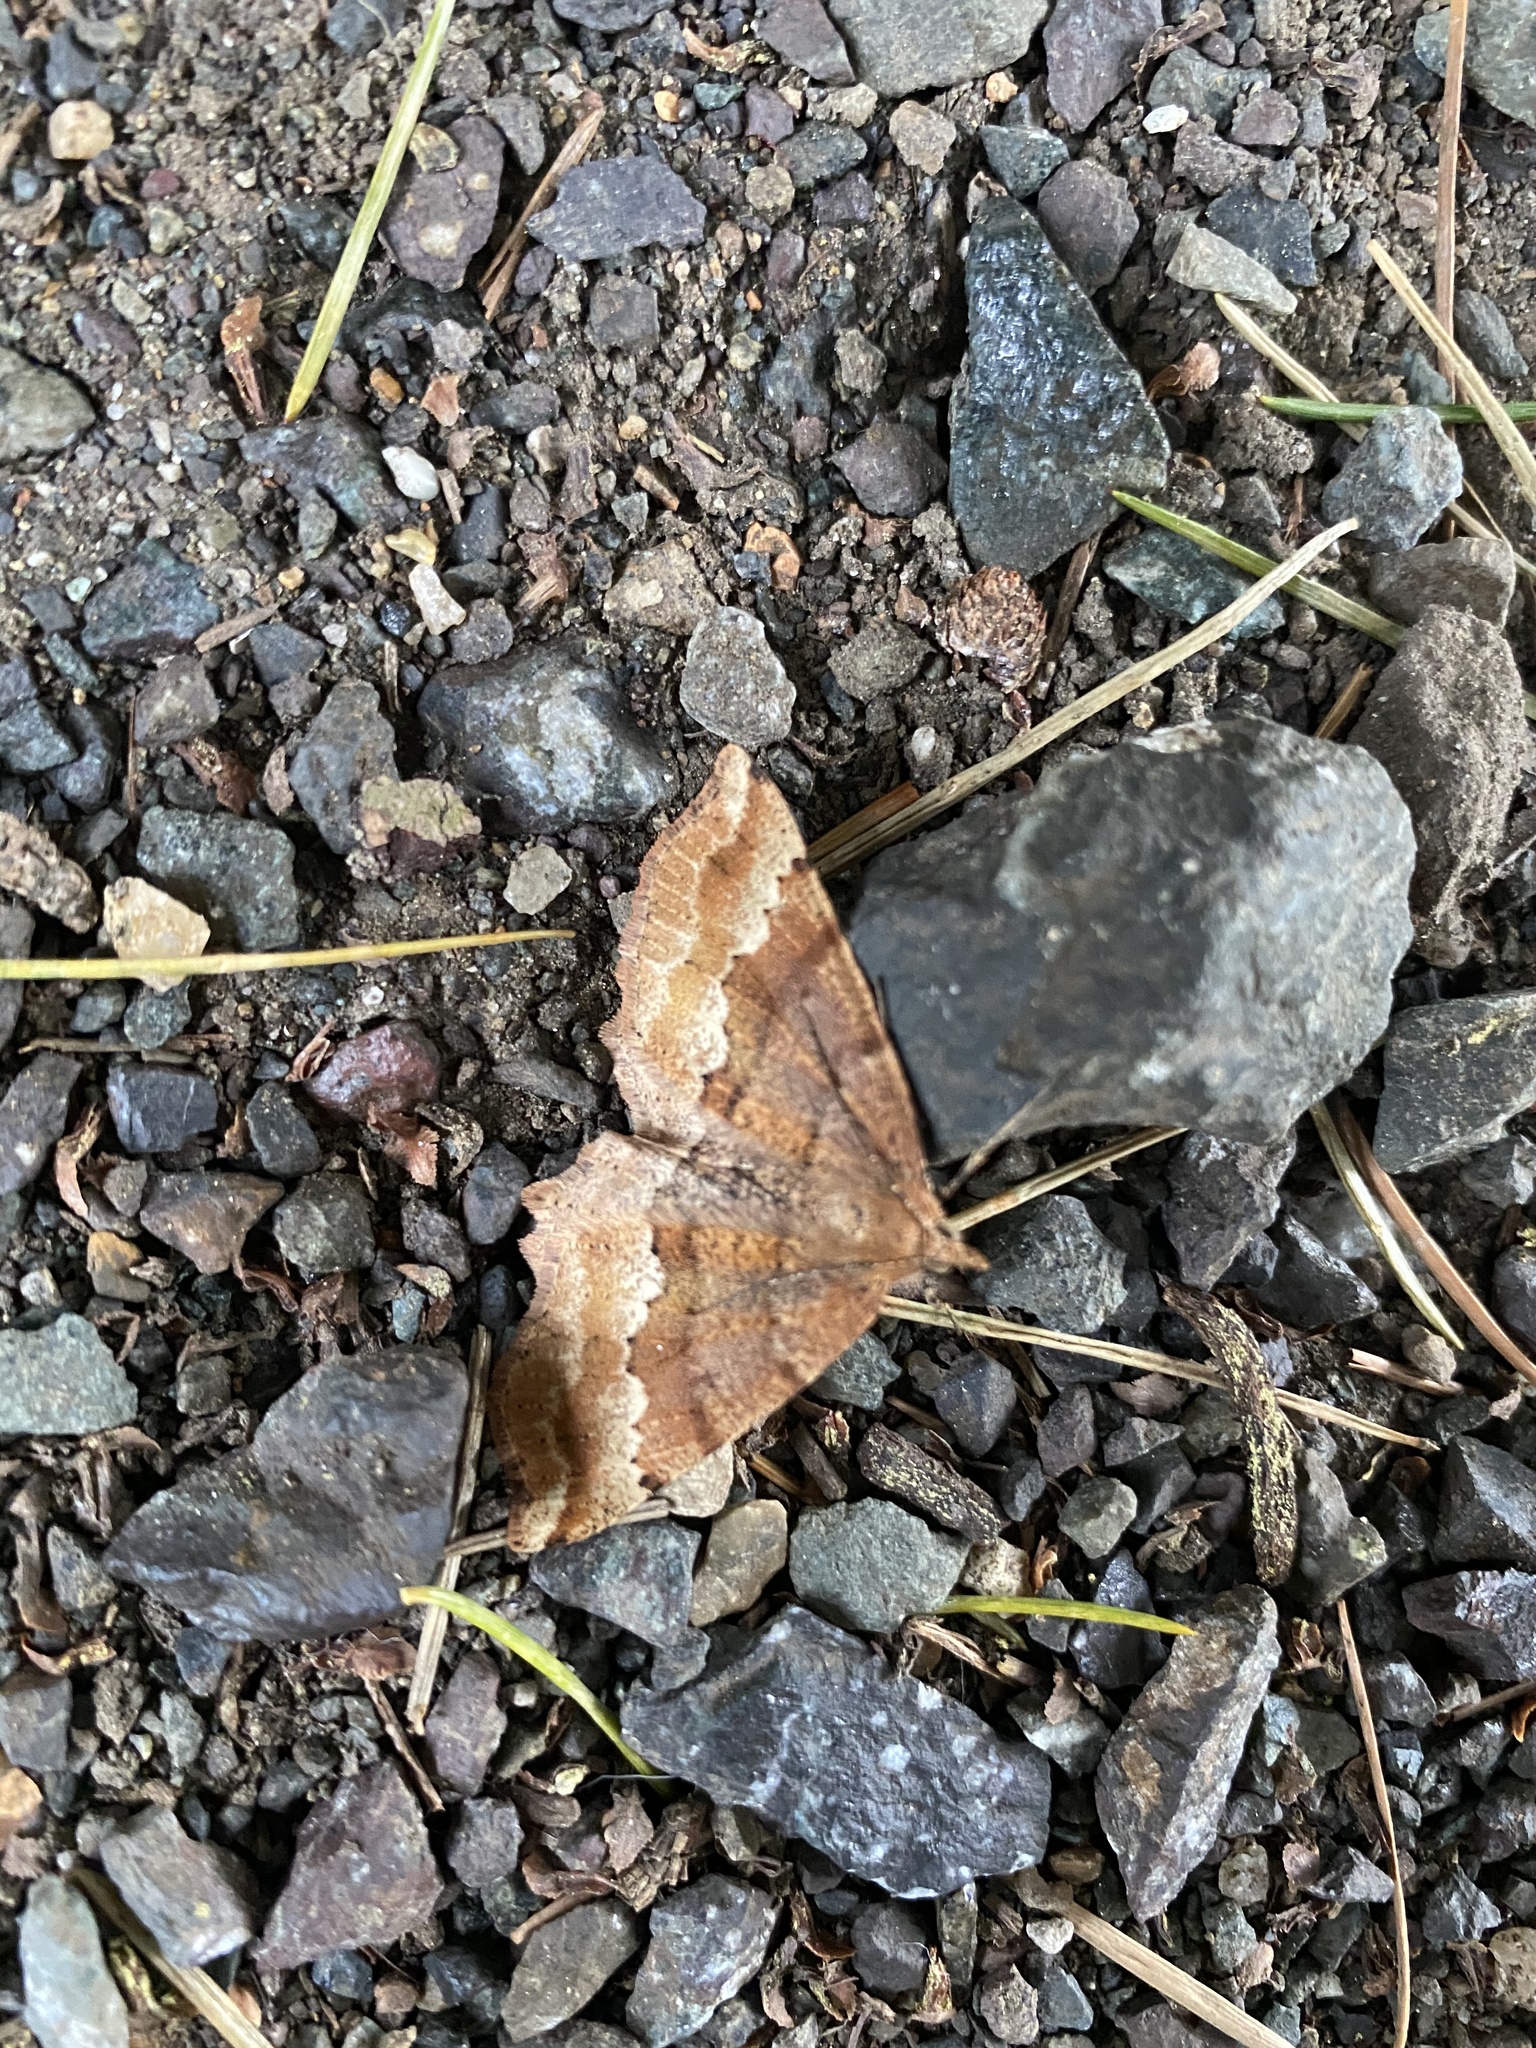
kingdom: Animalia
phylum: Arthropoda
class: Insecta
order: Lepidoptera
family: Geometridae
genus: Xerodes
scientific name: Xerodes rufescentaria
